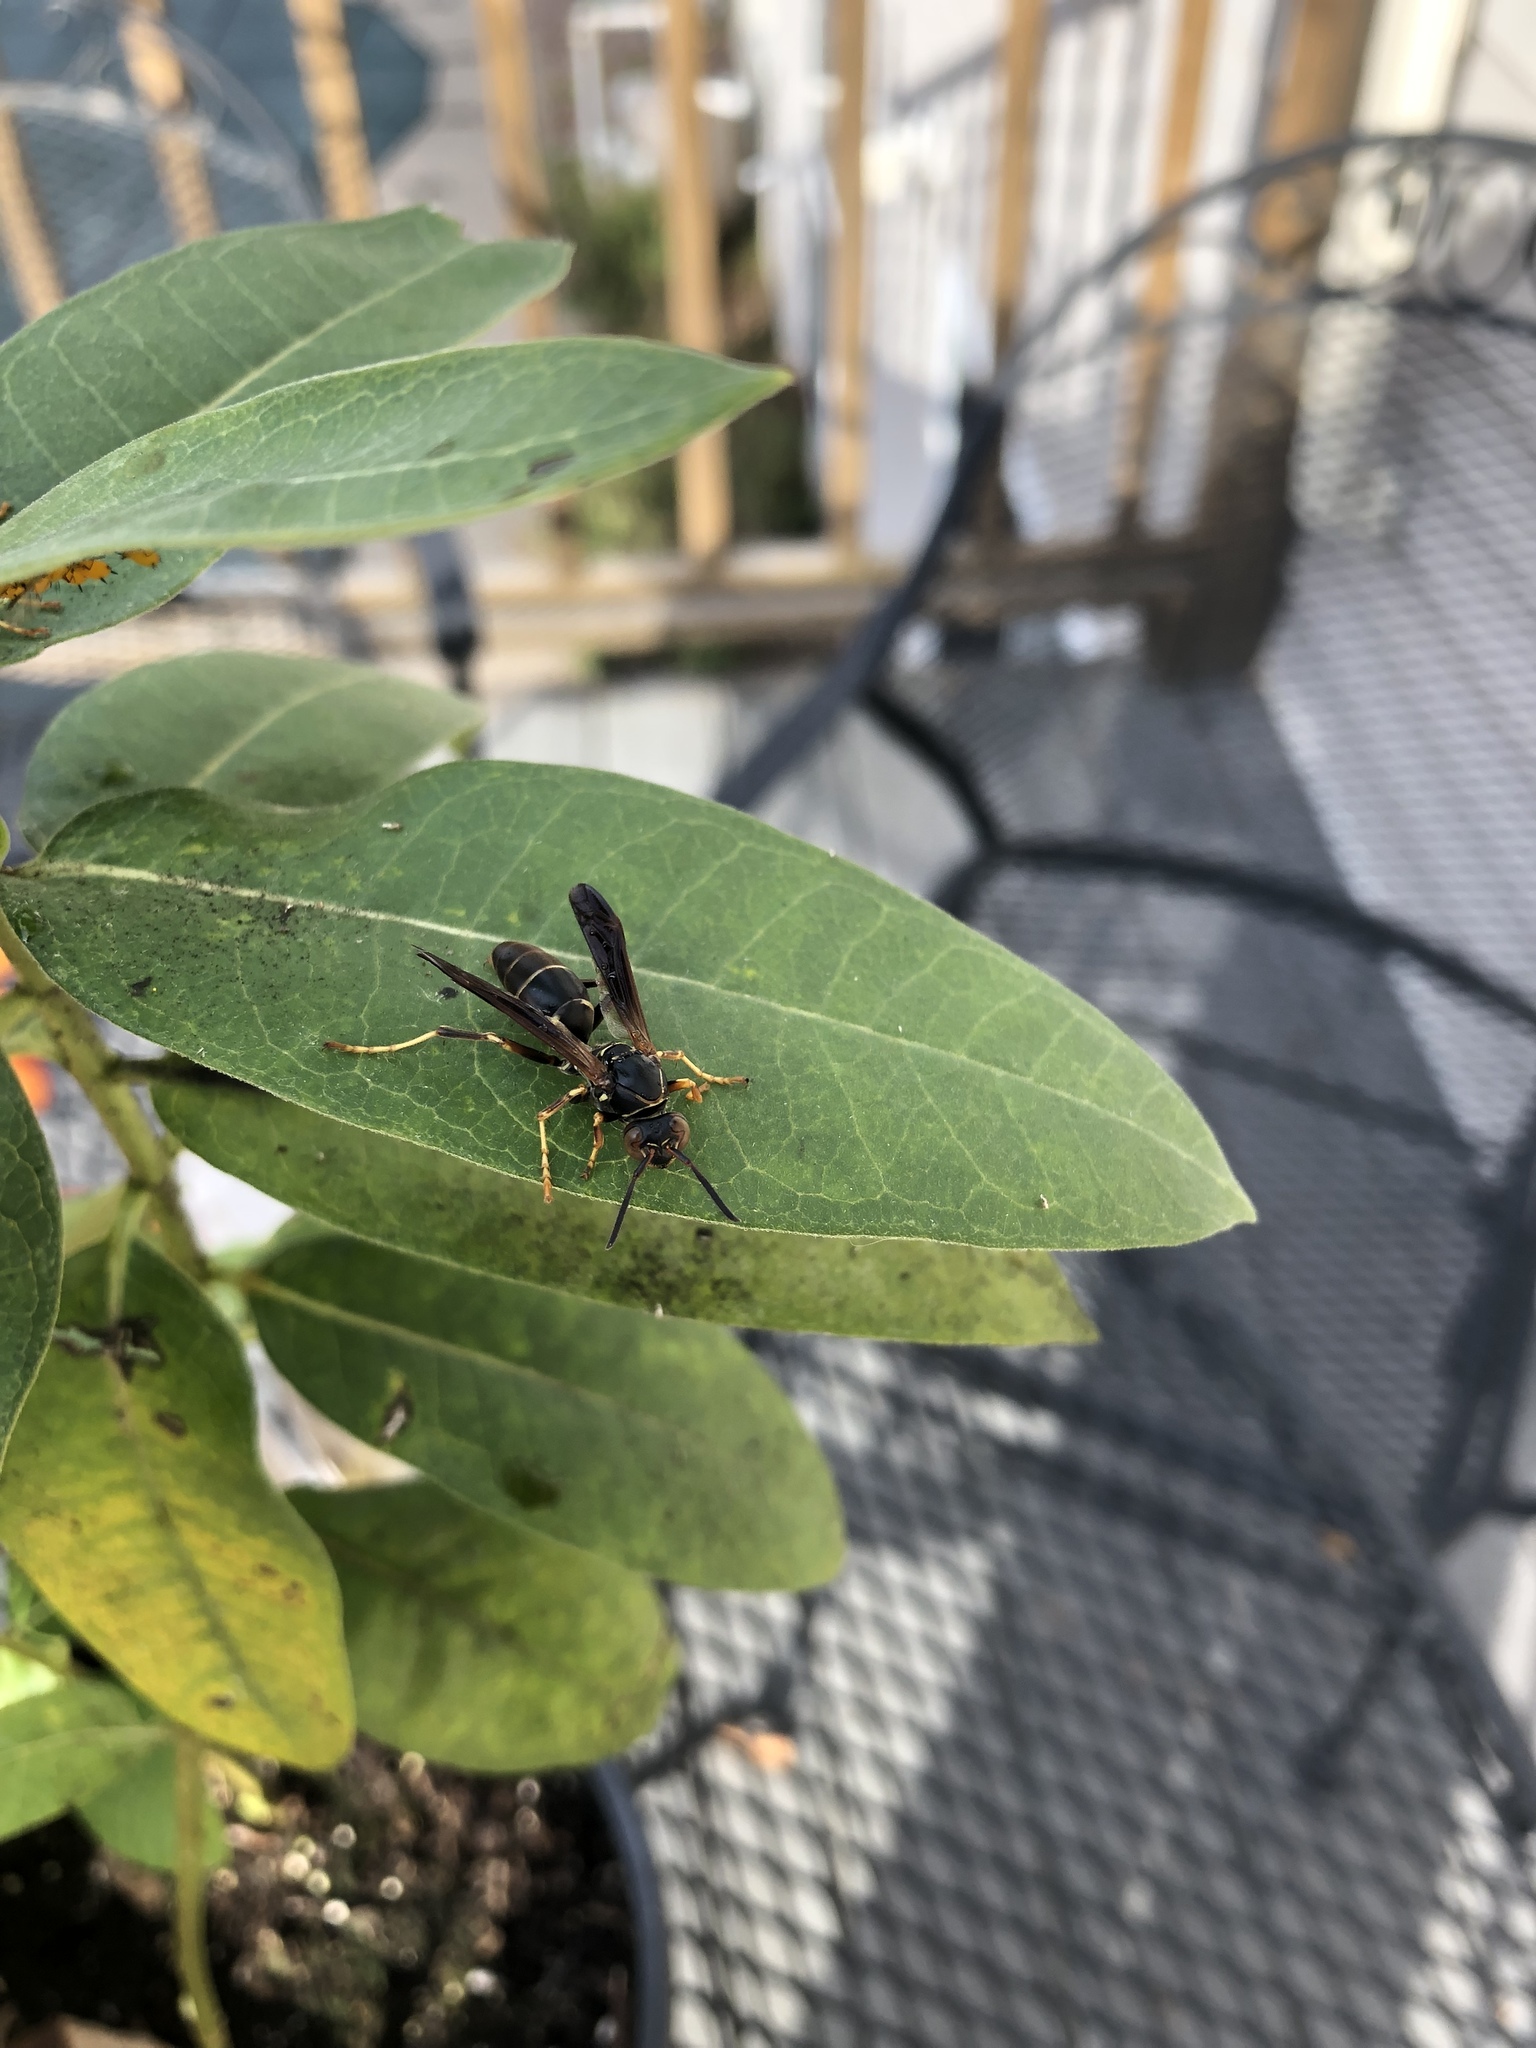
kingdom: Animalia
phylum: Arthropoda
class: Insecta
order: Hymenoptera
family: Eumenidae
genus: Polistes
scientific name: Polistes fuscatus
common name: Dark paper wasp
